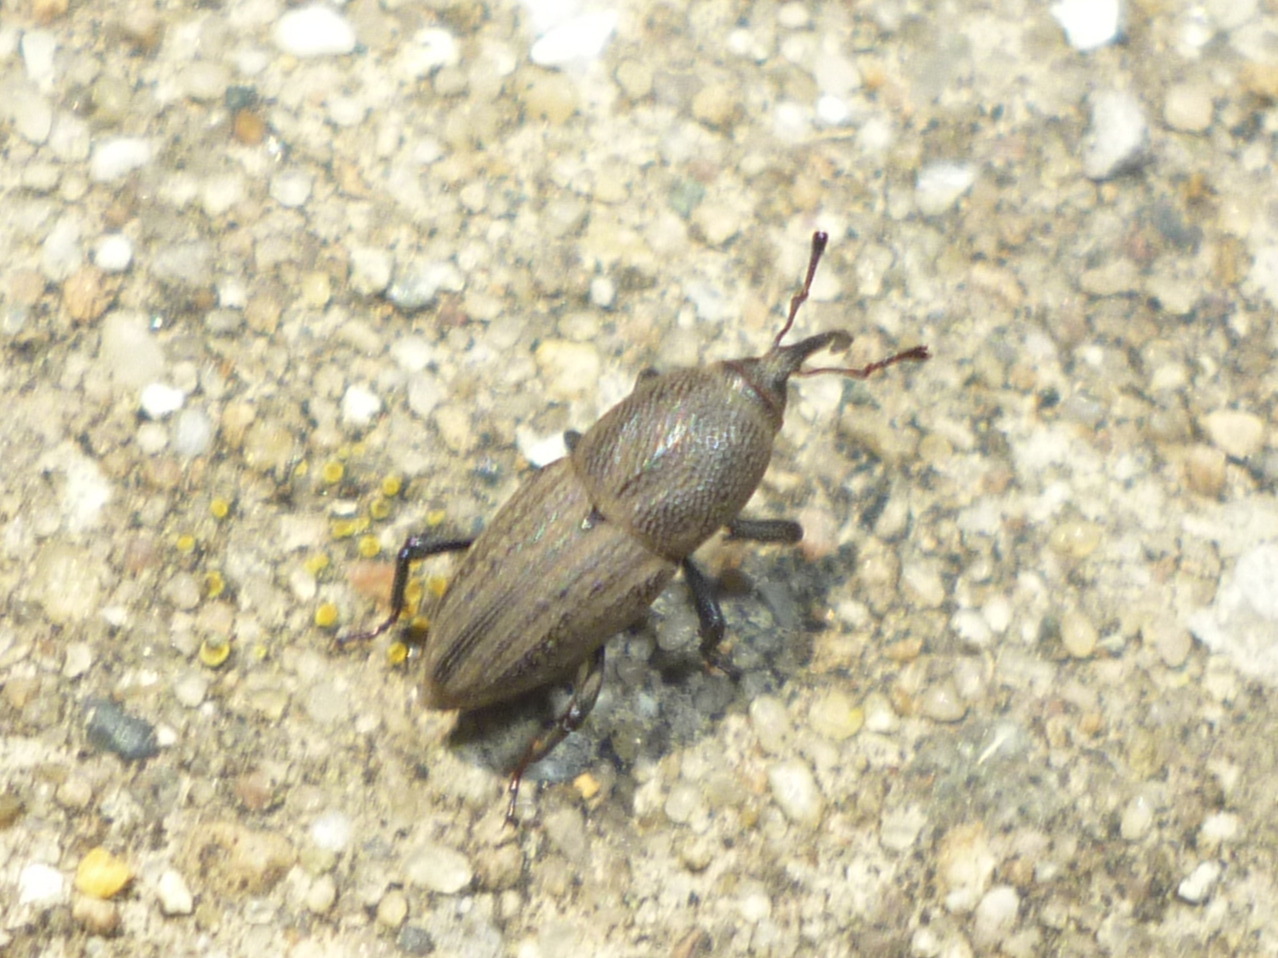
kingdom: Animalia
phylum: Arthropoda
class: Insecta
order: Coleoptera
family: Dryophthoridae
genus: Sphenophorus
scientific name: Sphenophorus interstitialis
